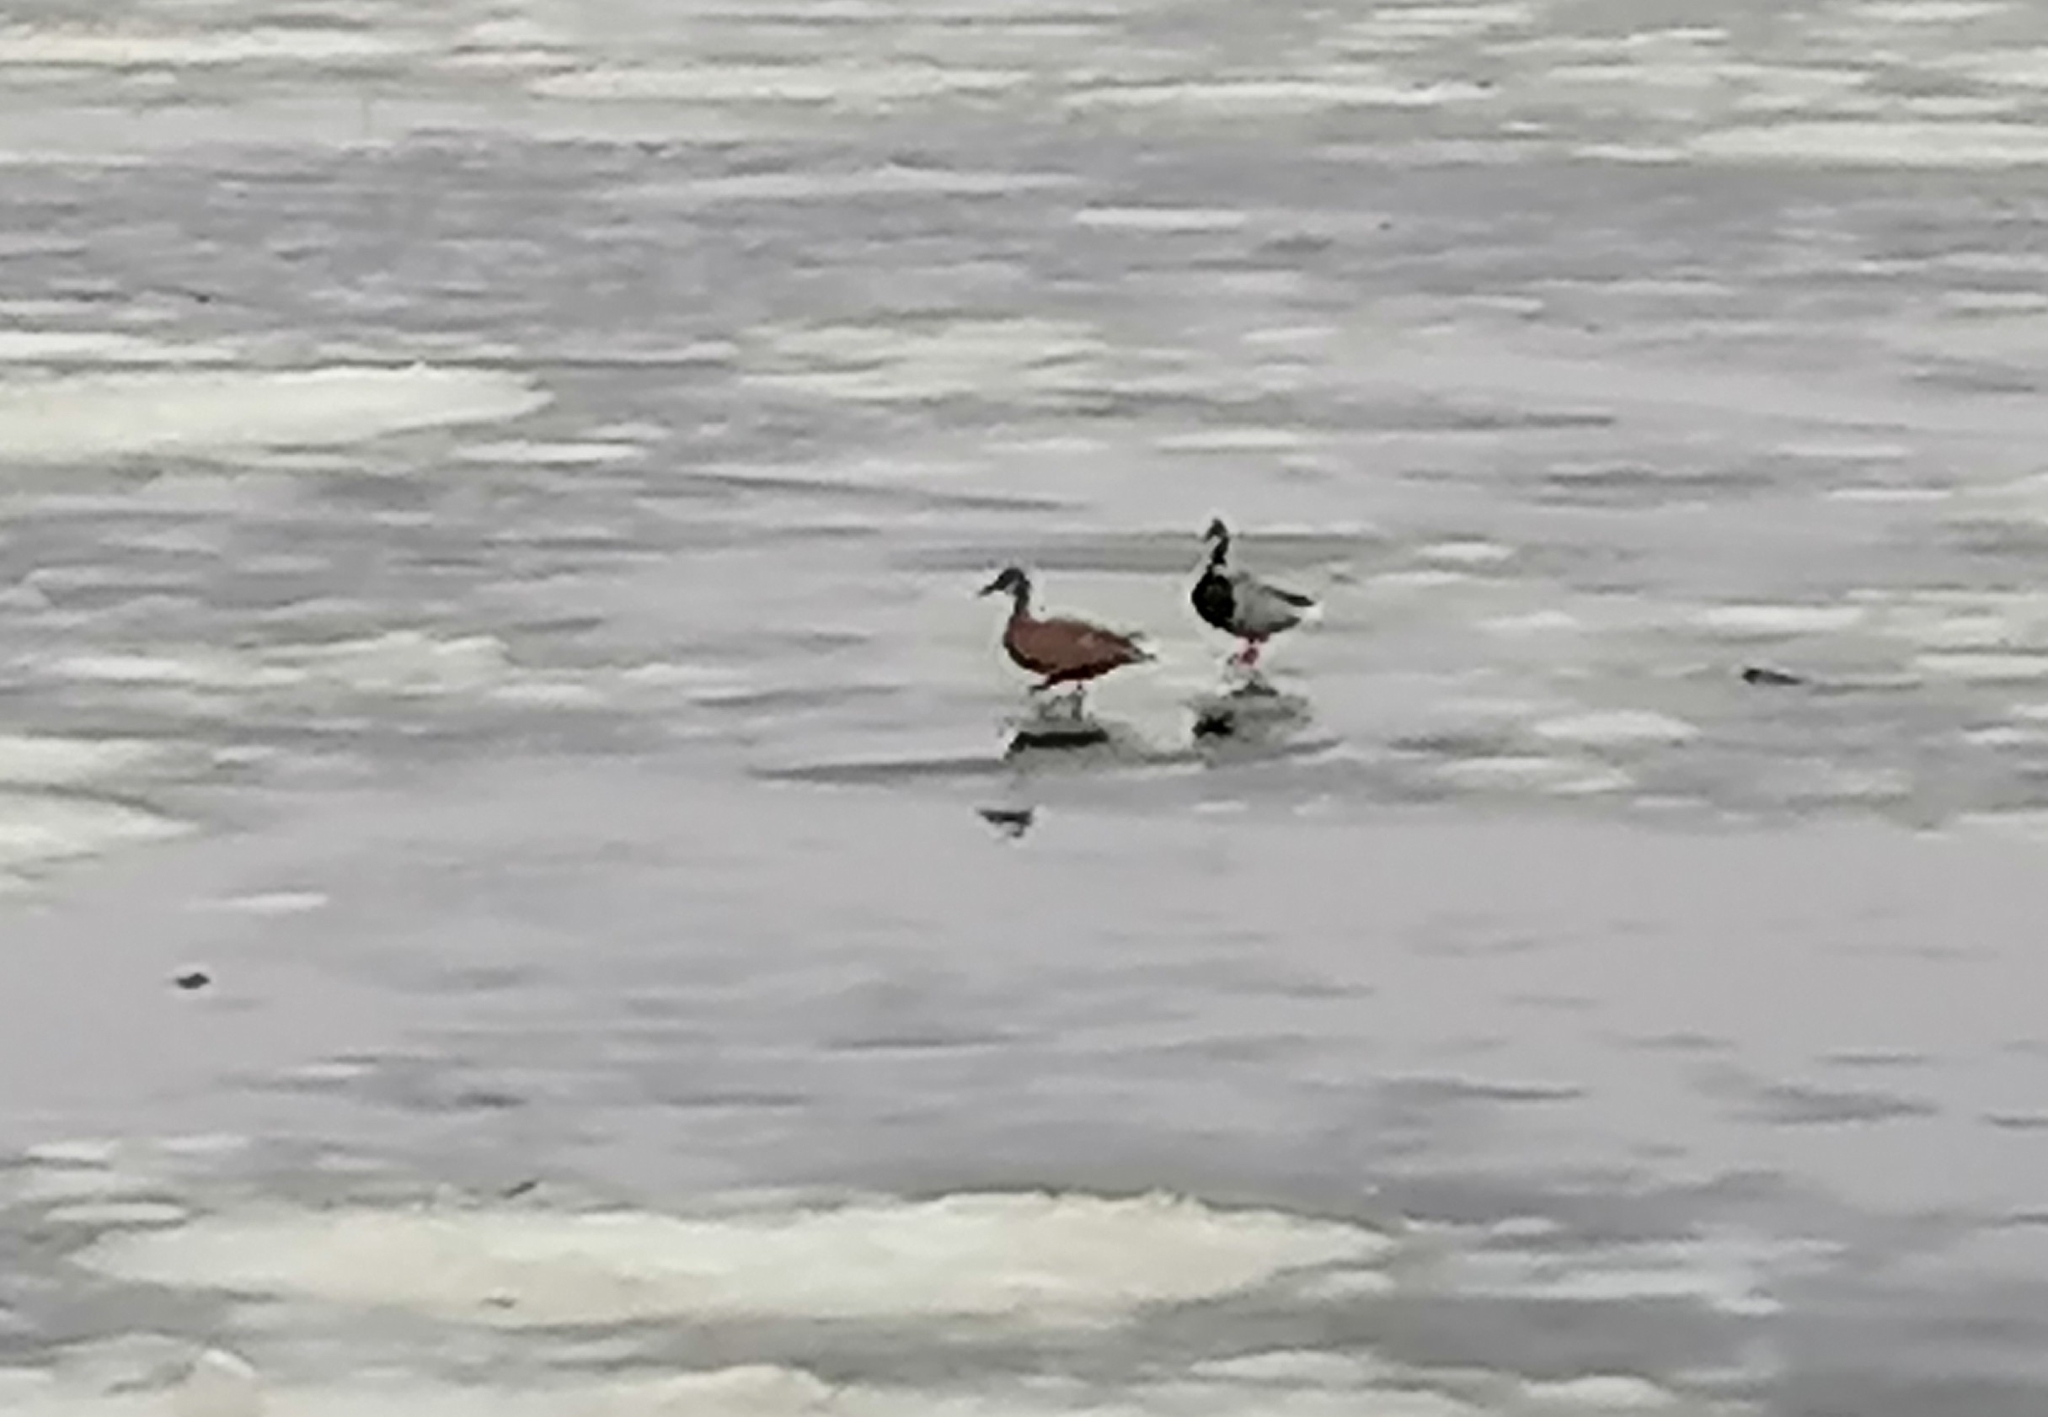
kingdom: Animalia
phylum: Chordata
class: Aves
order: Anseriformes
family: Anatidae
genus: Anas
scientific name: Anas platyrhynchos
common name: Mallard
